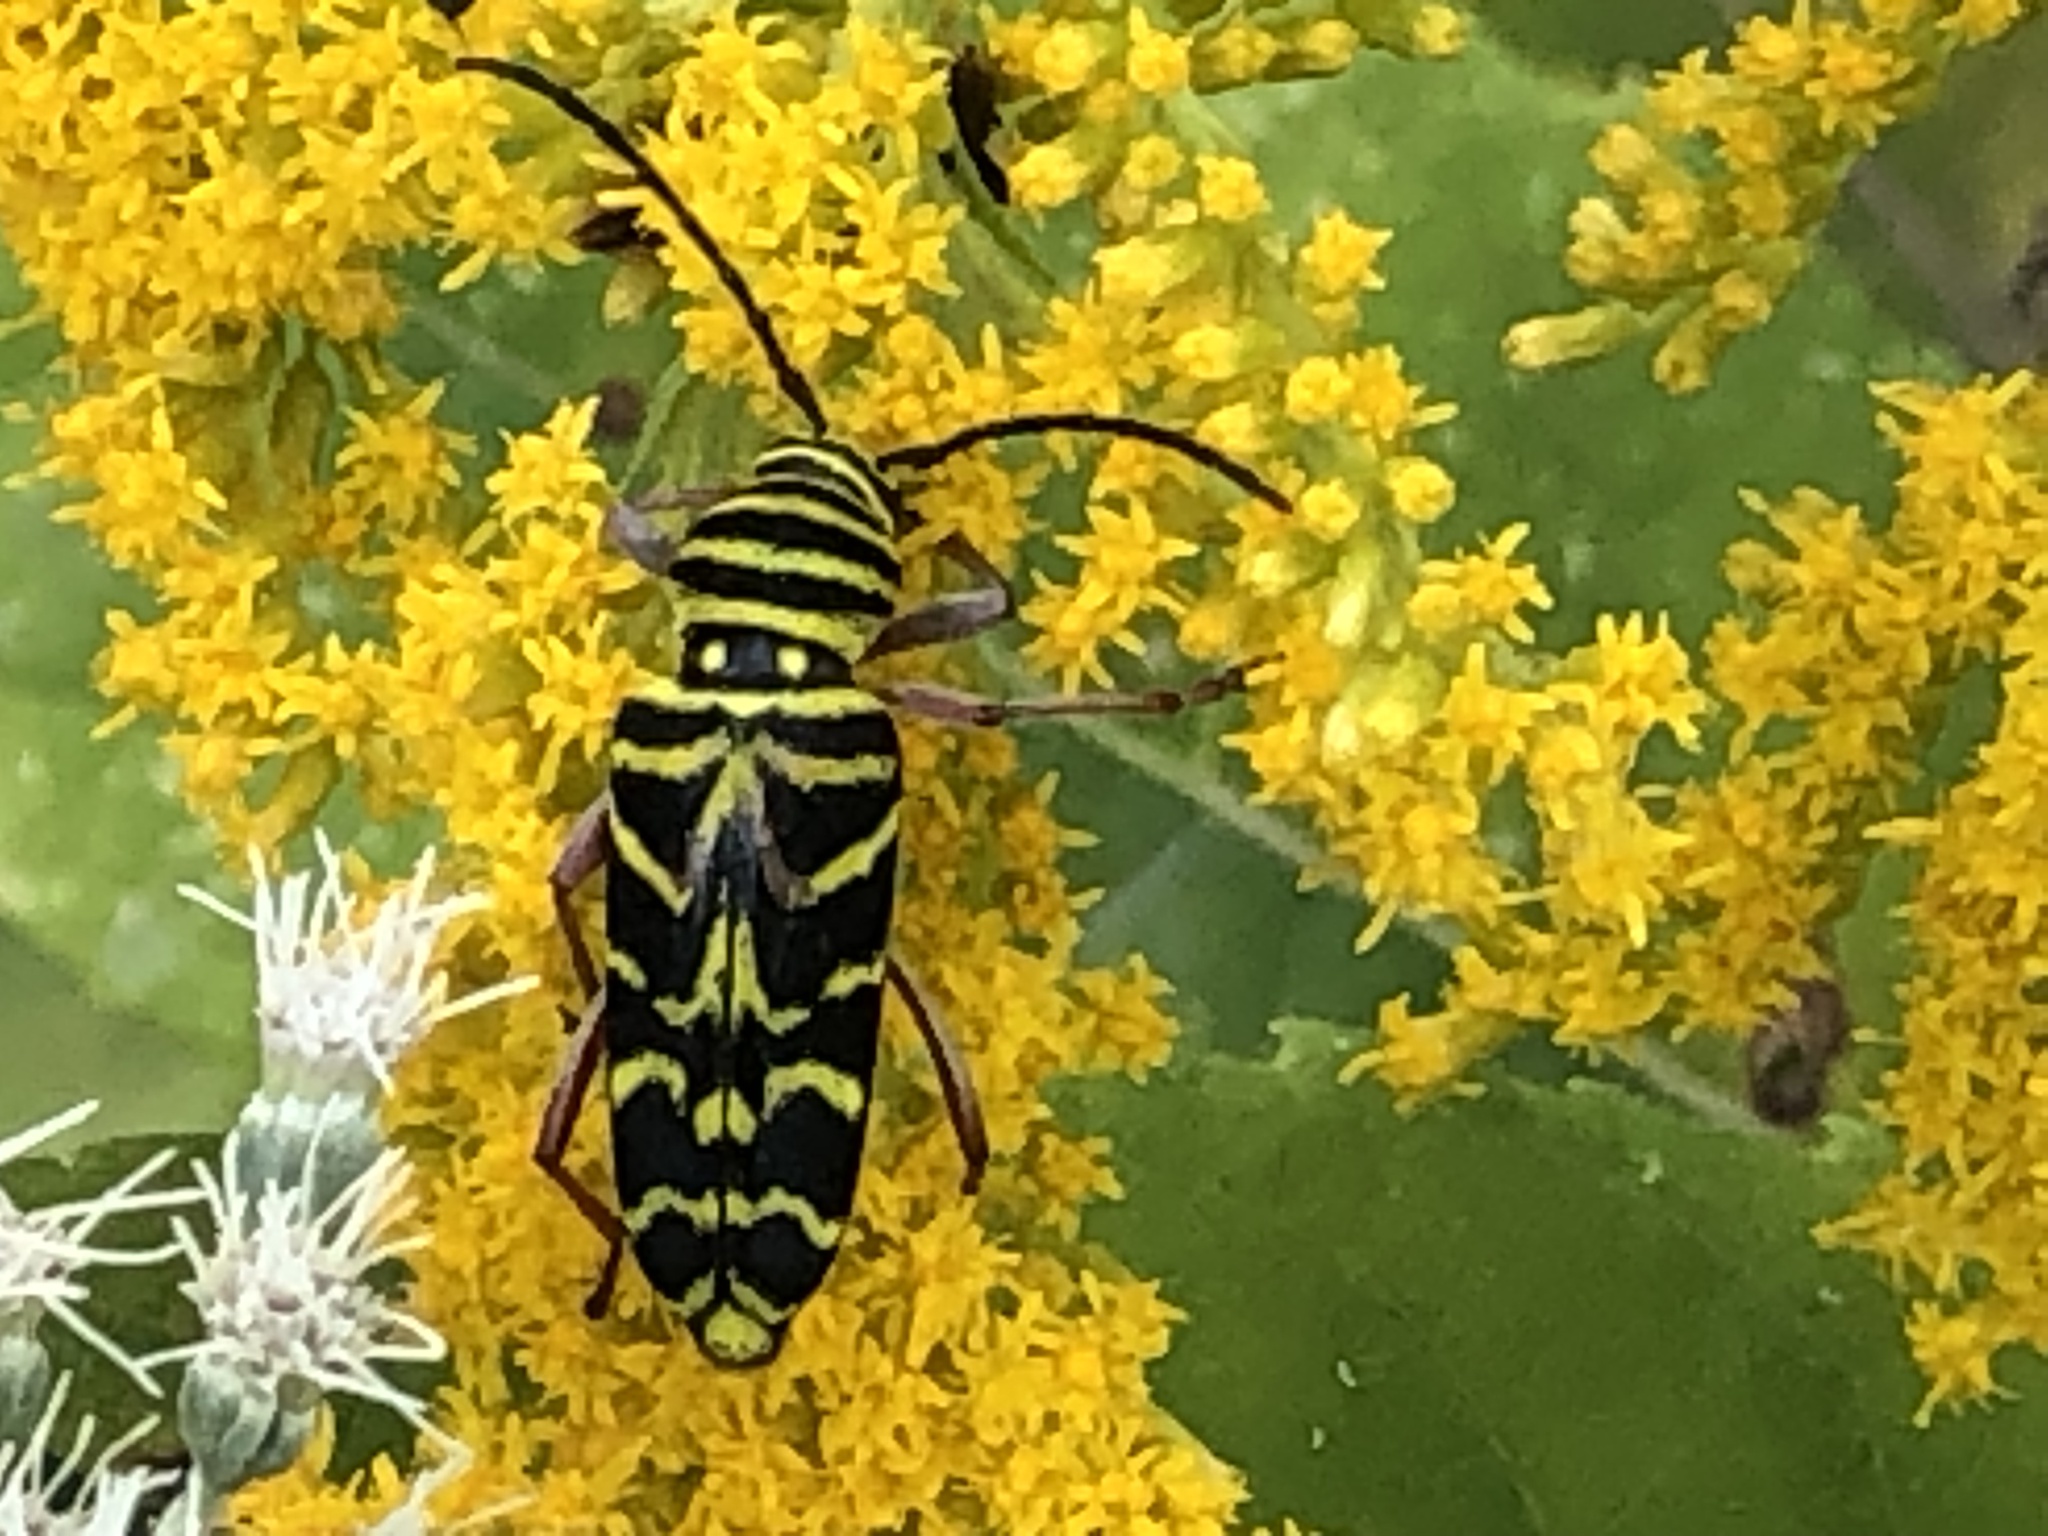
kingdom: Animalia
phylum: Arthropoda
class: Insecta
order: Coleoptera
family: Cerambycidae
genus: Megacyllene
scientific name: Megacyllene robiniae
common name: Locust borer
